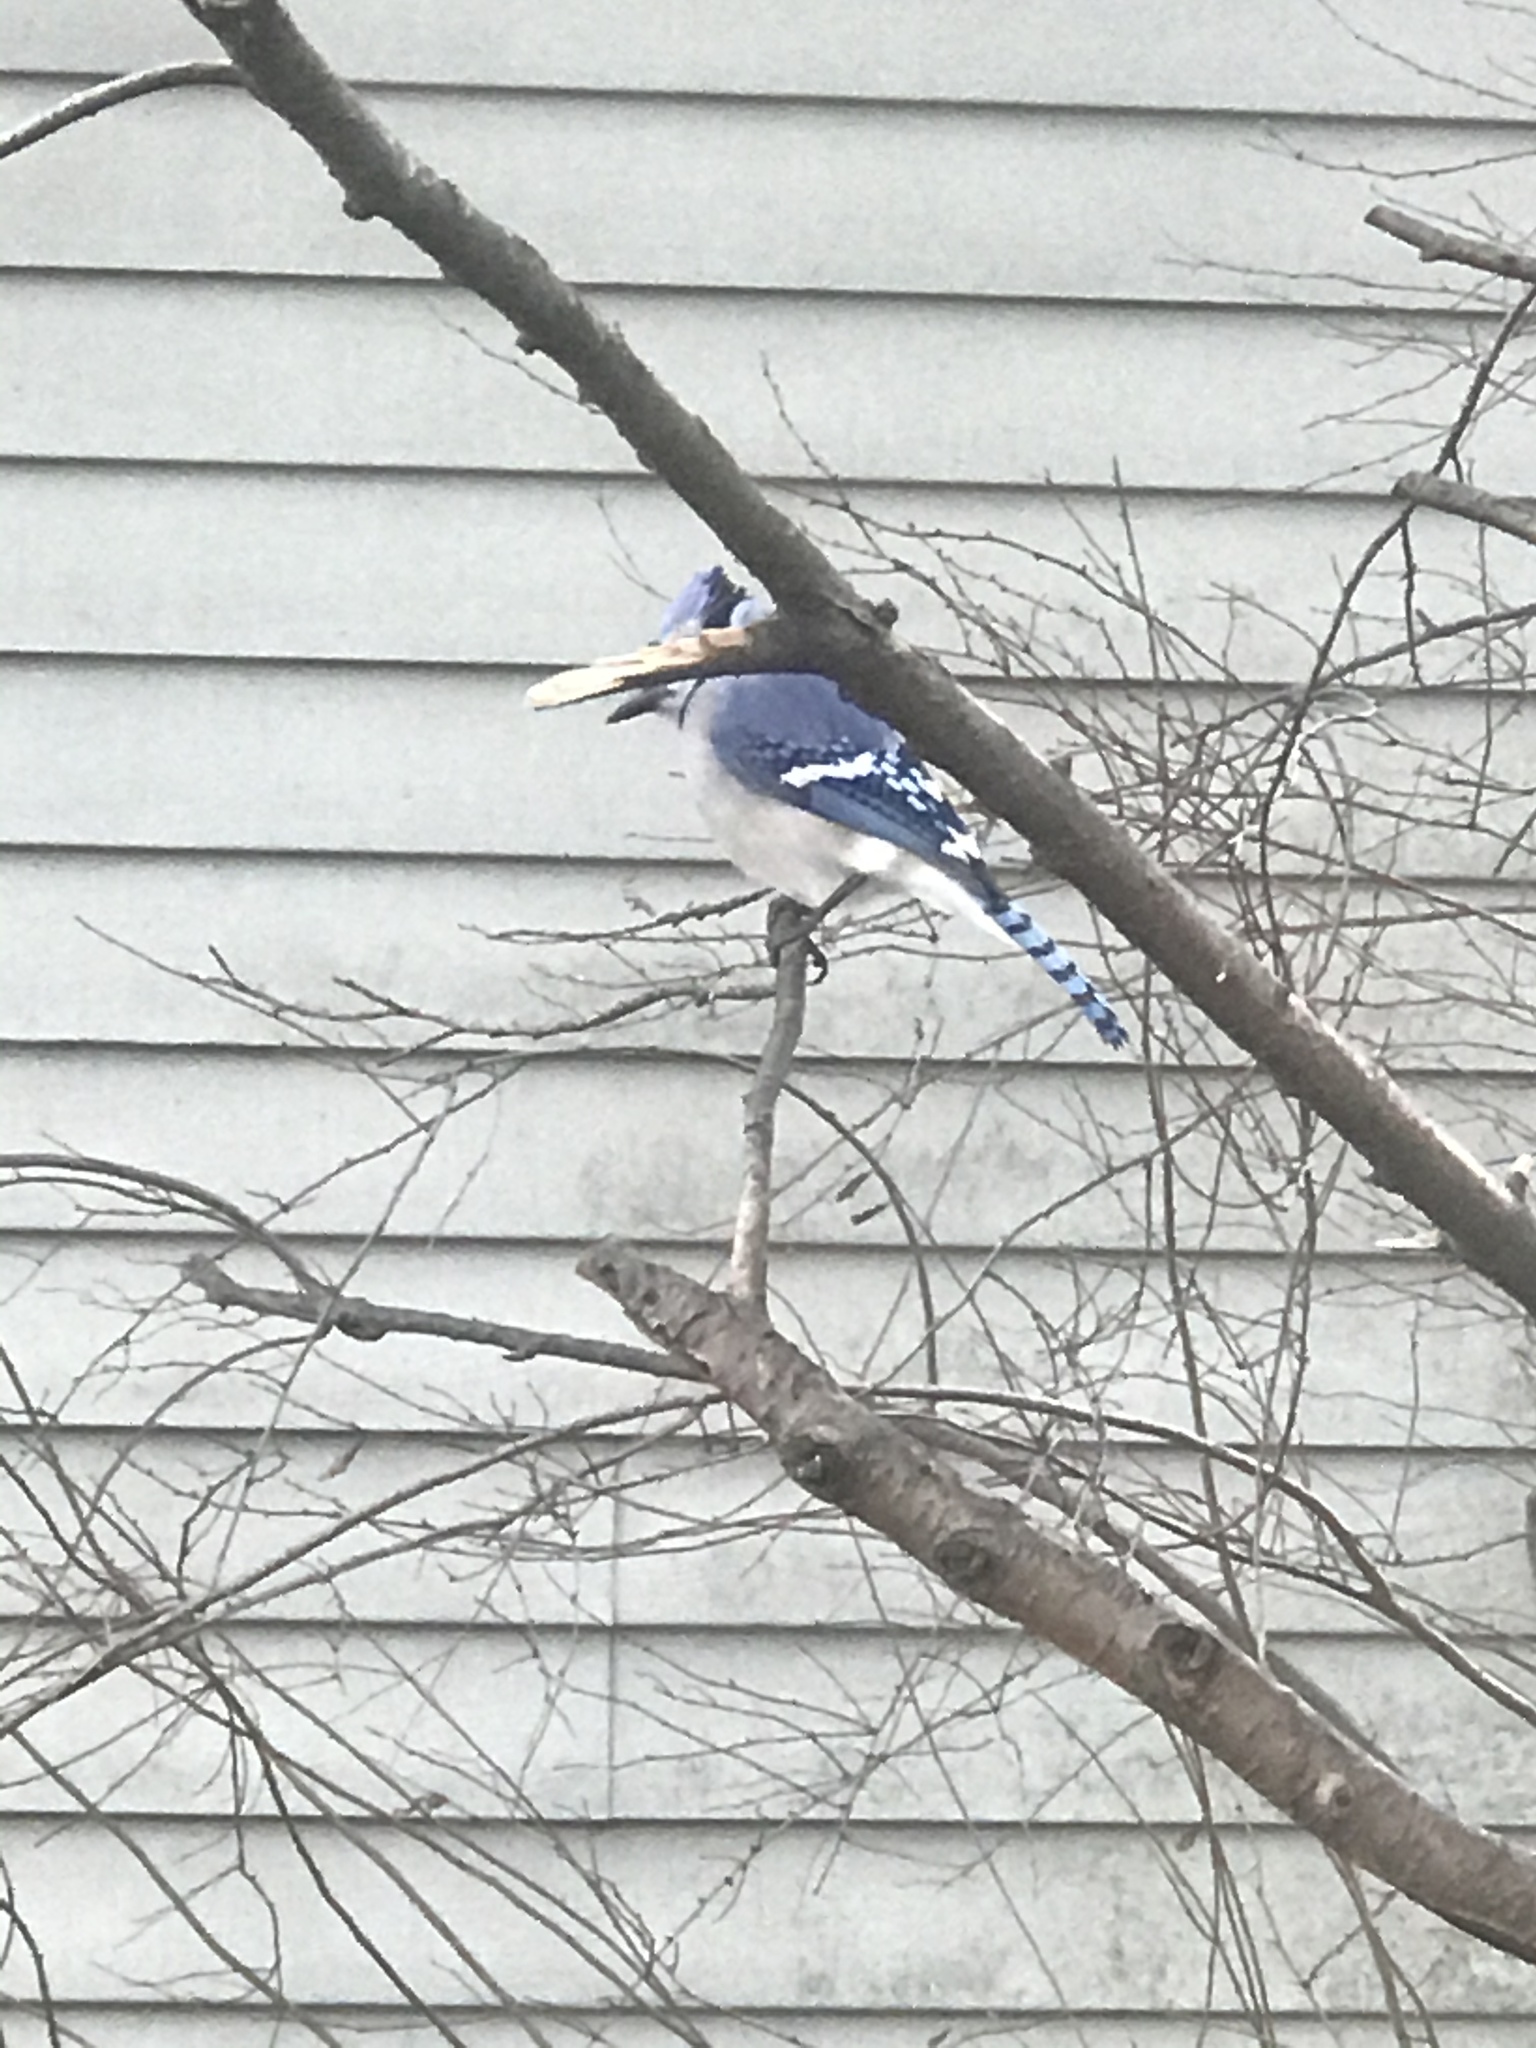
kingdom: Animalia
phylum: Chordata
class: Aves
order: Passeriformes
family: Corvidae
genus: Cyanocitta
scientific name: Cyanocitta cristata
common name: Blue jay
